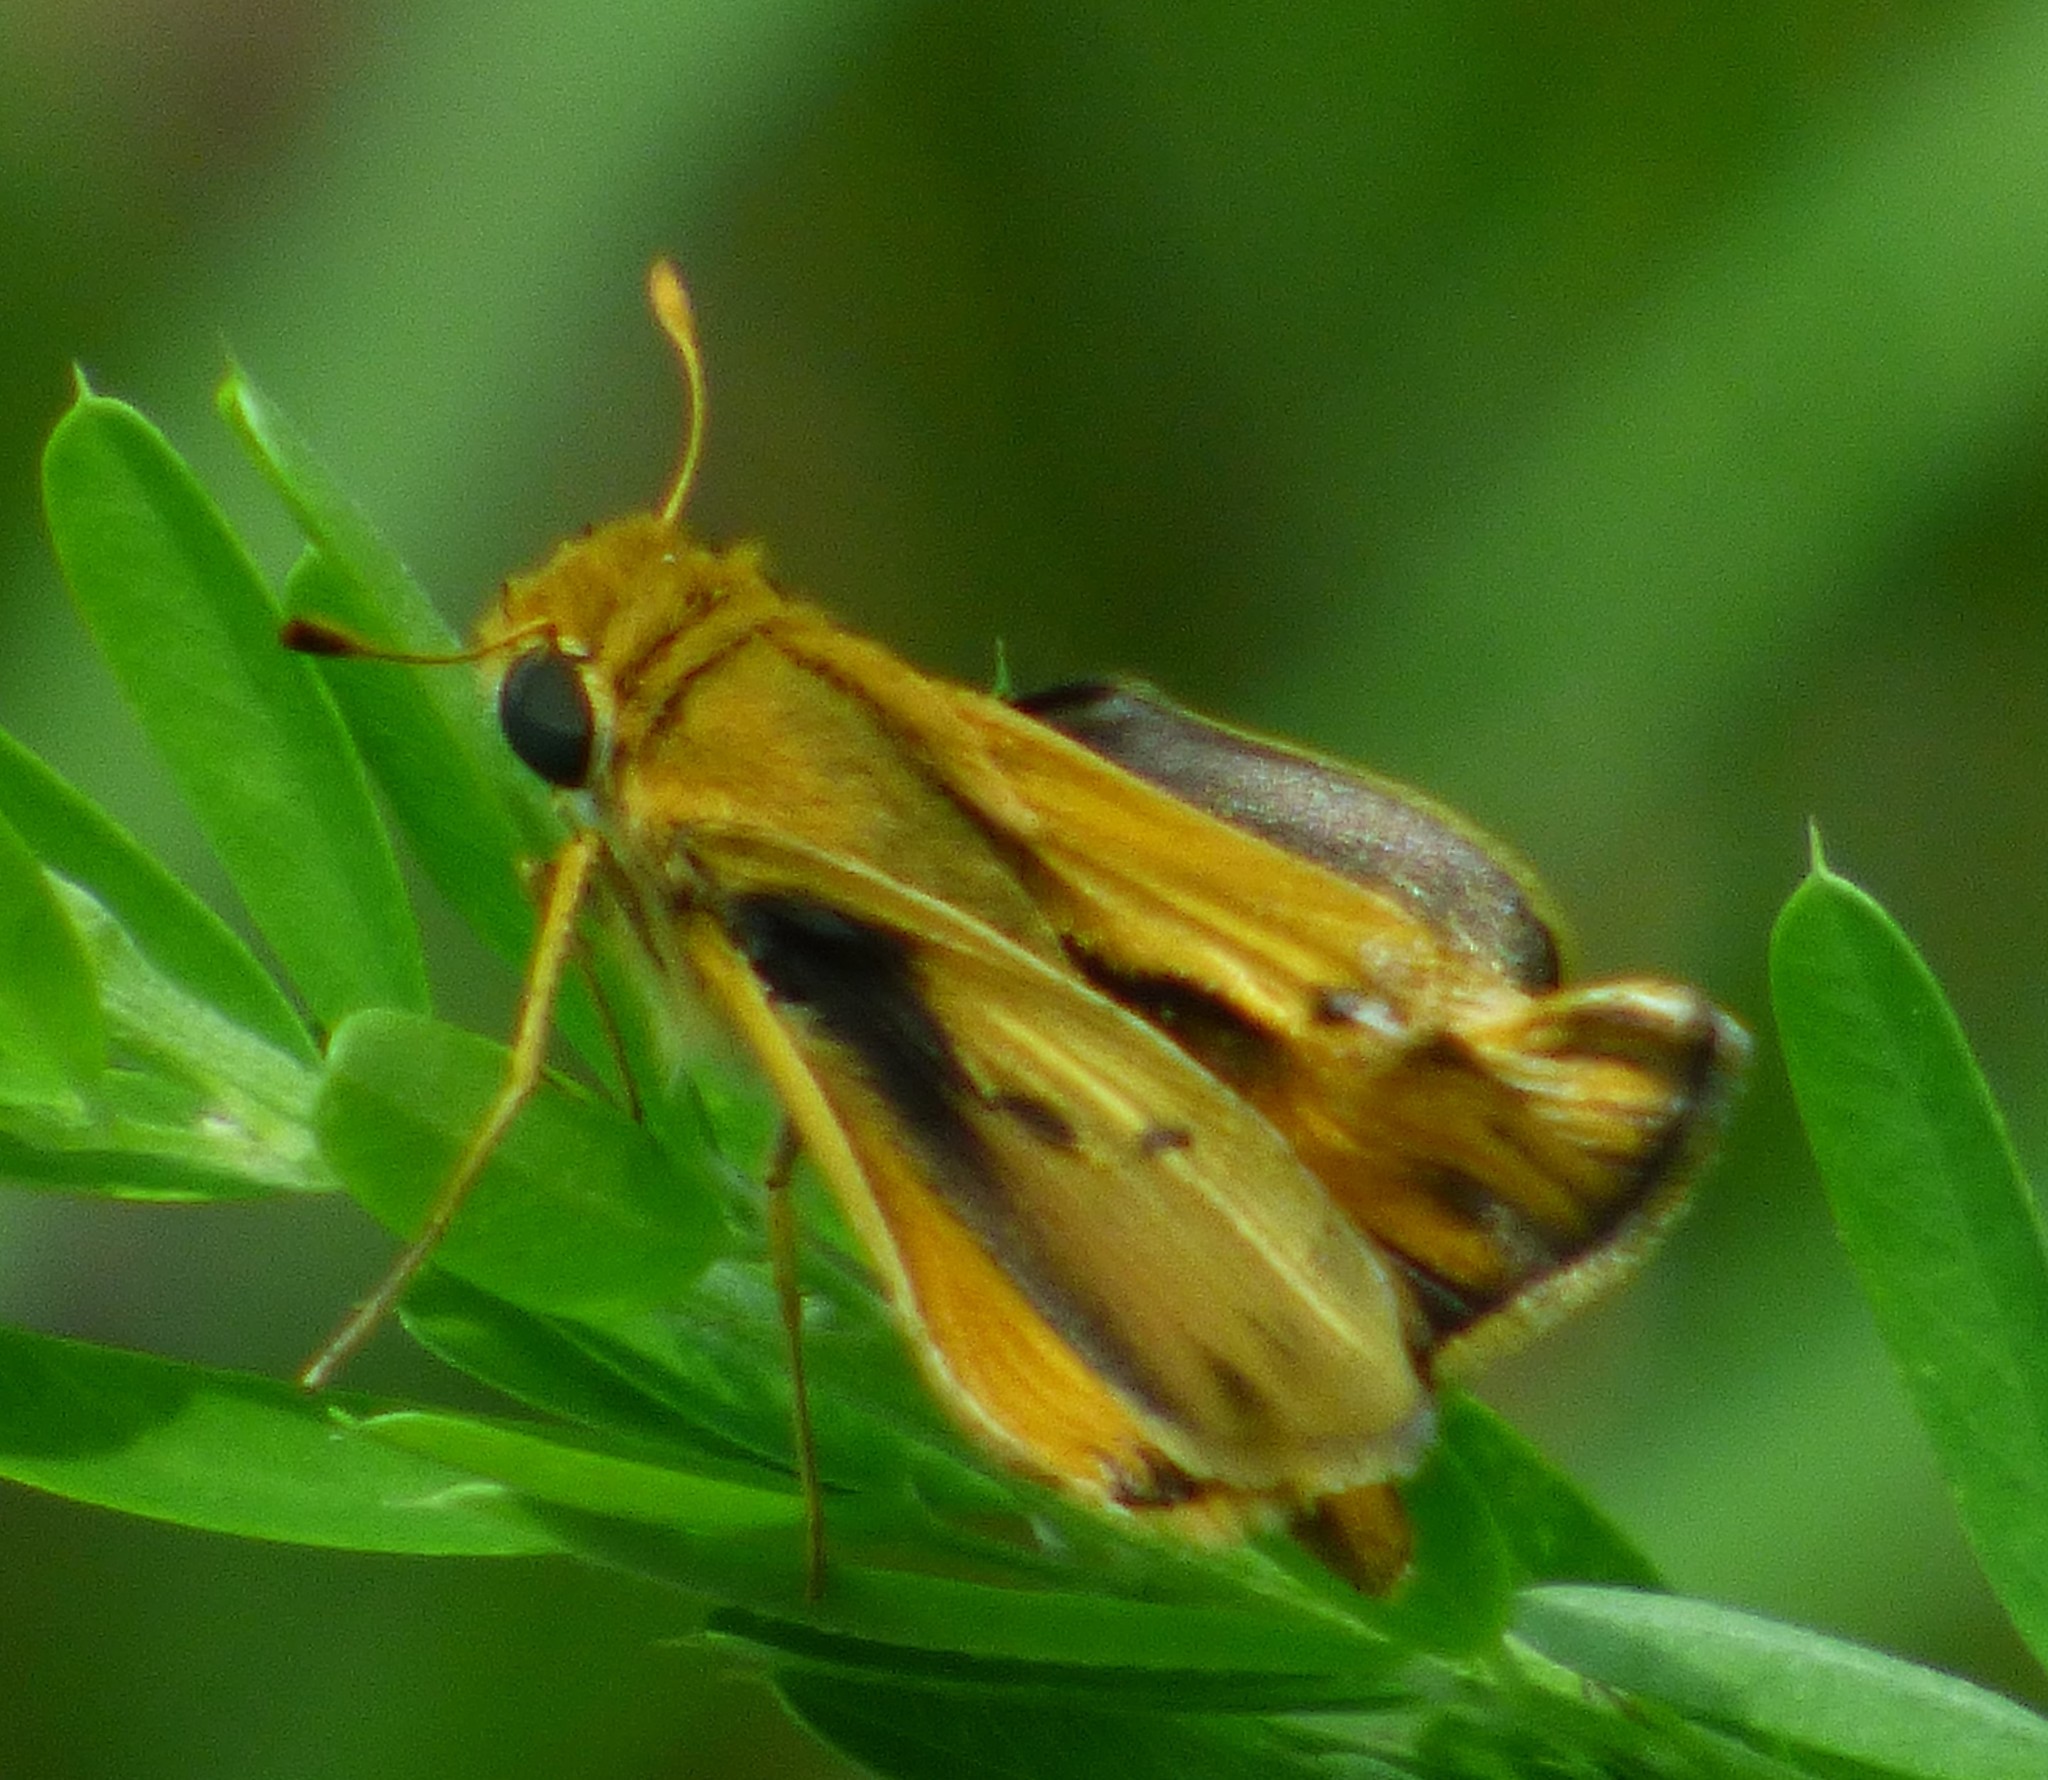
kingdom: Animalia
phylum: Arthropoda
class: Insecta
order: Lepidoptera
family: Hesperiidae
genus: Hylephila
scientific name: Hylephila phyleus
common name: Fiery skipper
